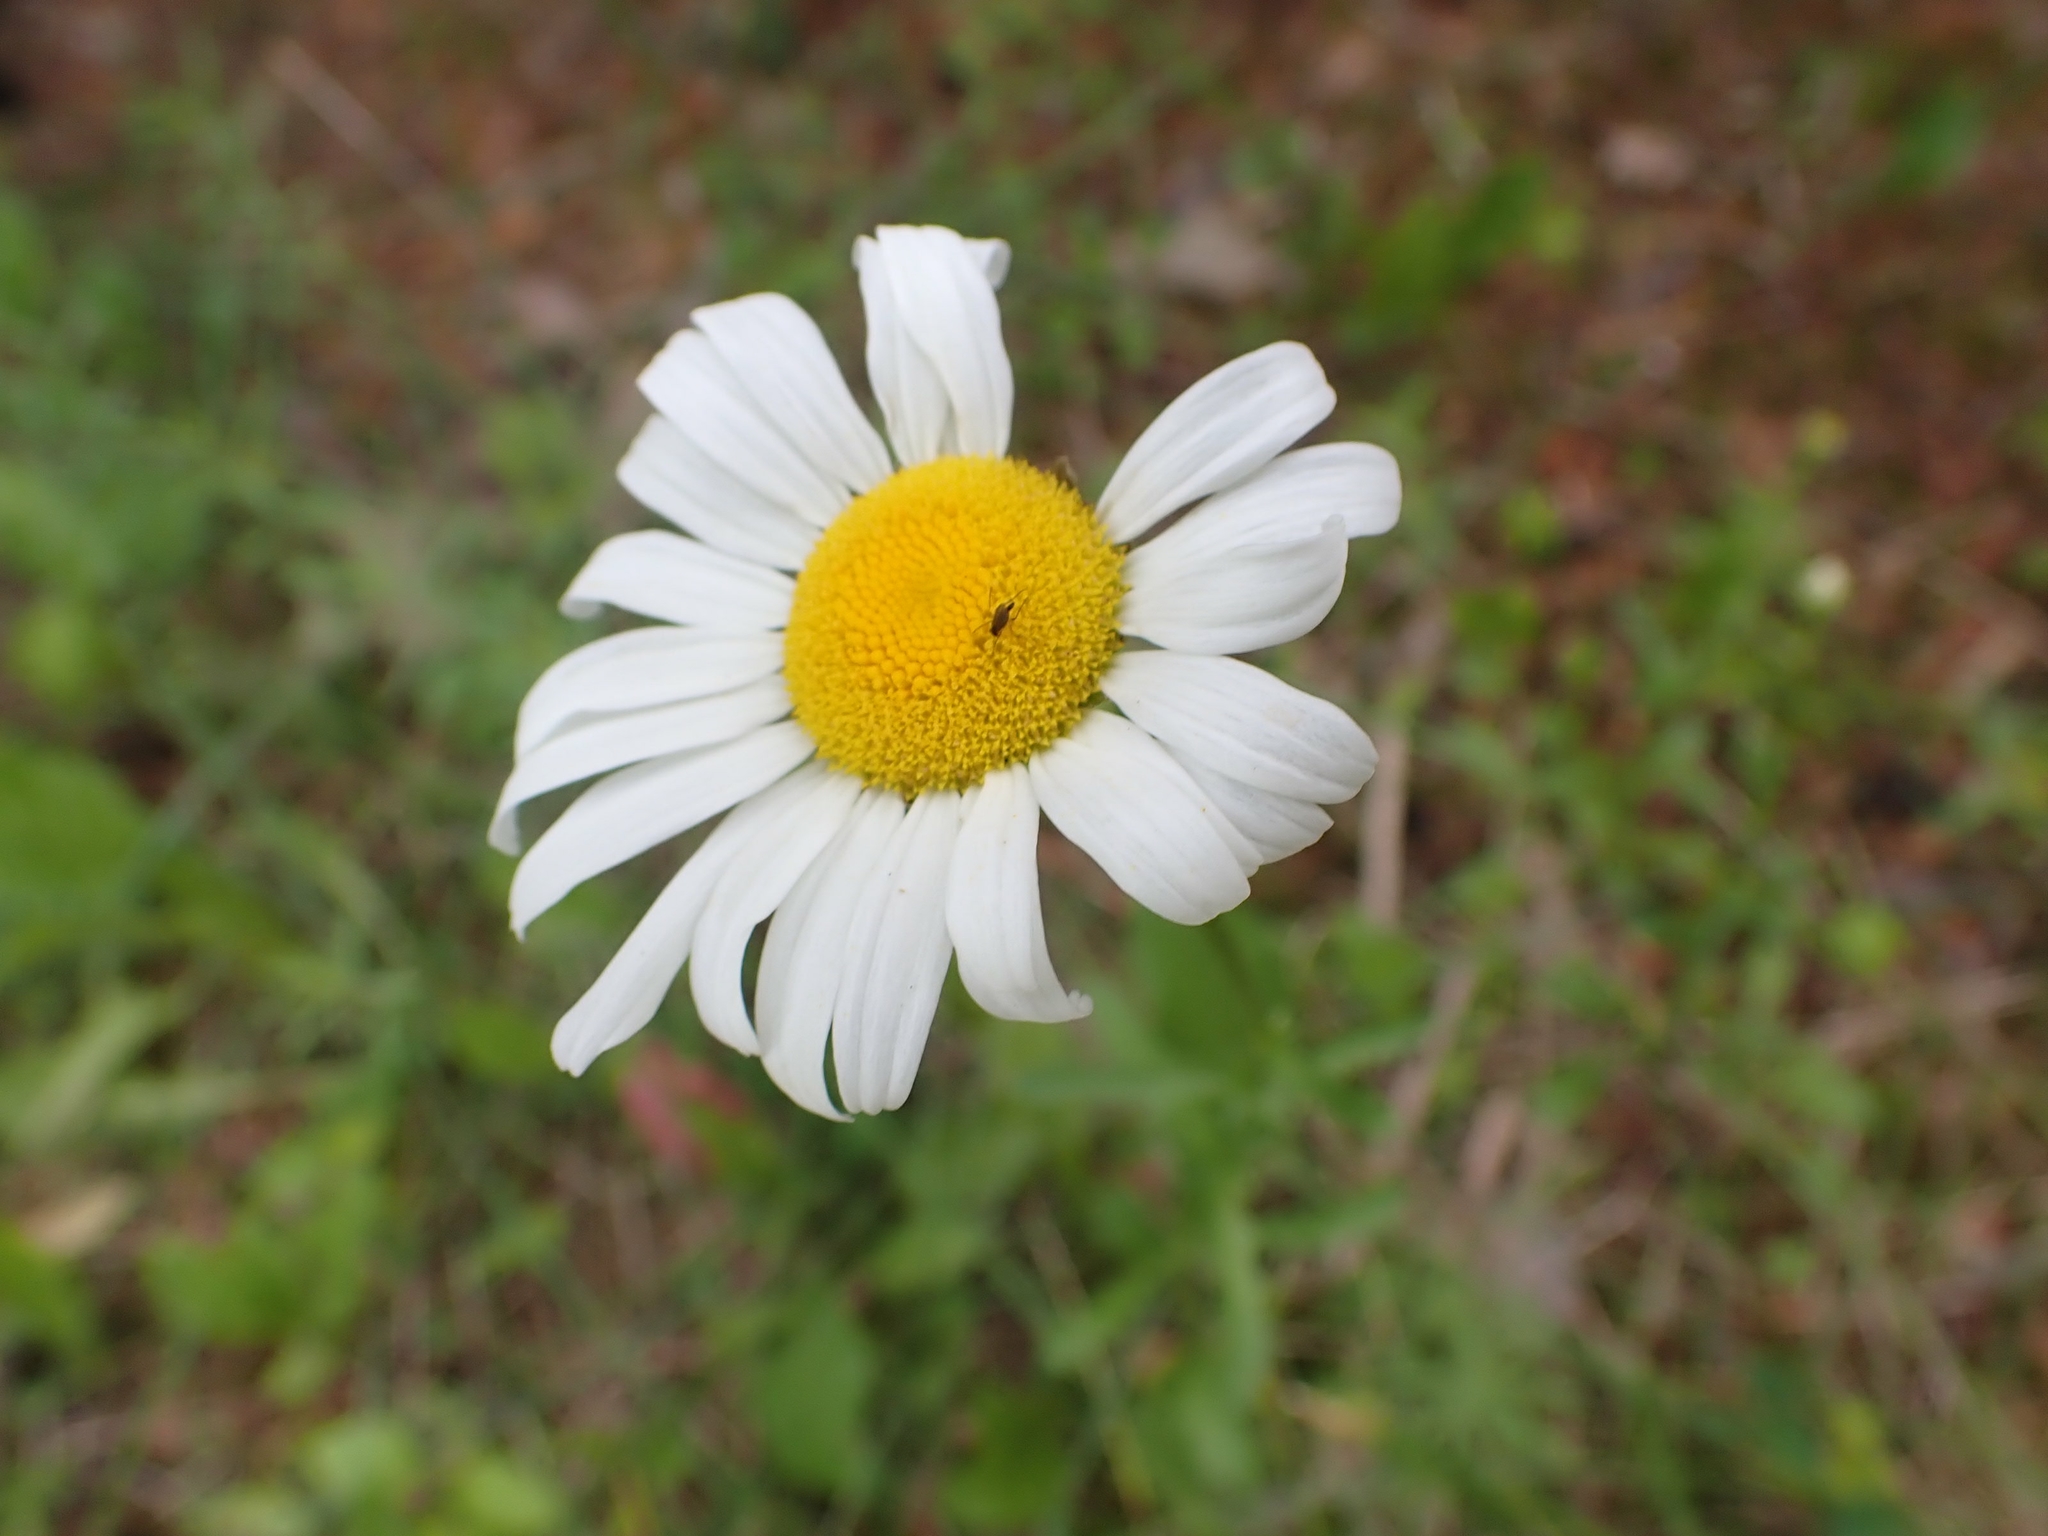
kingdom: Plantae
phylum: Tracheophyta
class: Magnoliopsida
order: Asterales
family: Asteraceae
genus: Leucanthemum
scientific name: Leucanthemum vulgare
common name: Oxeye daisy
